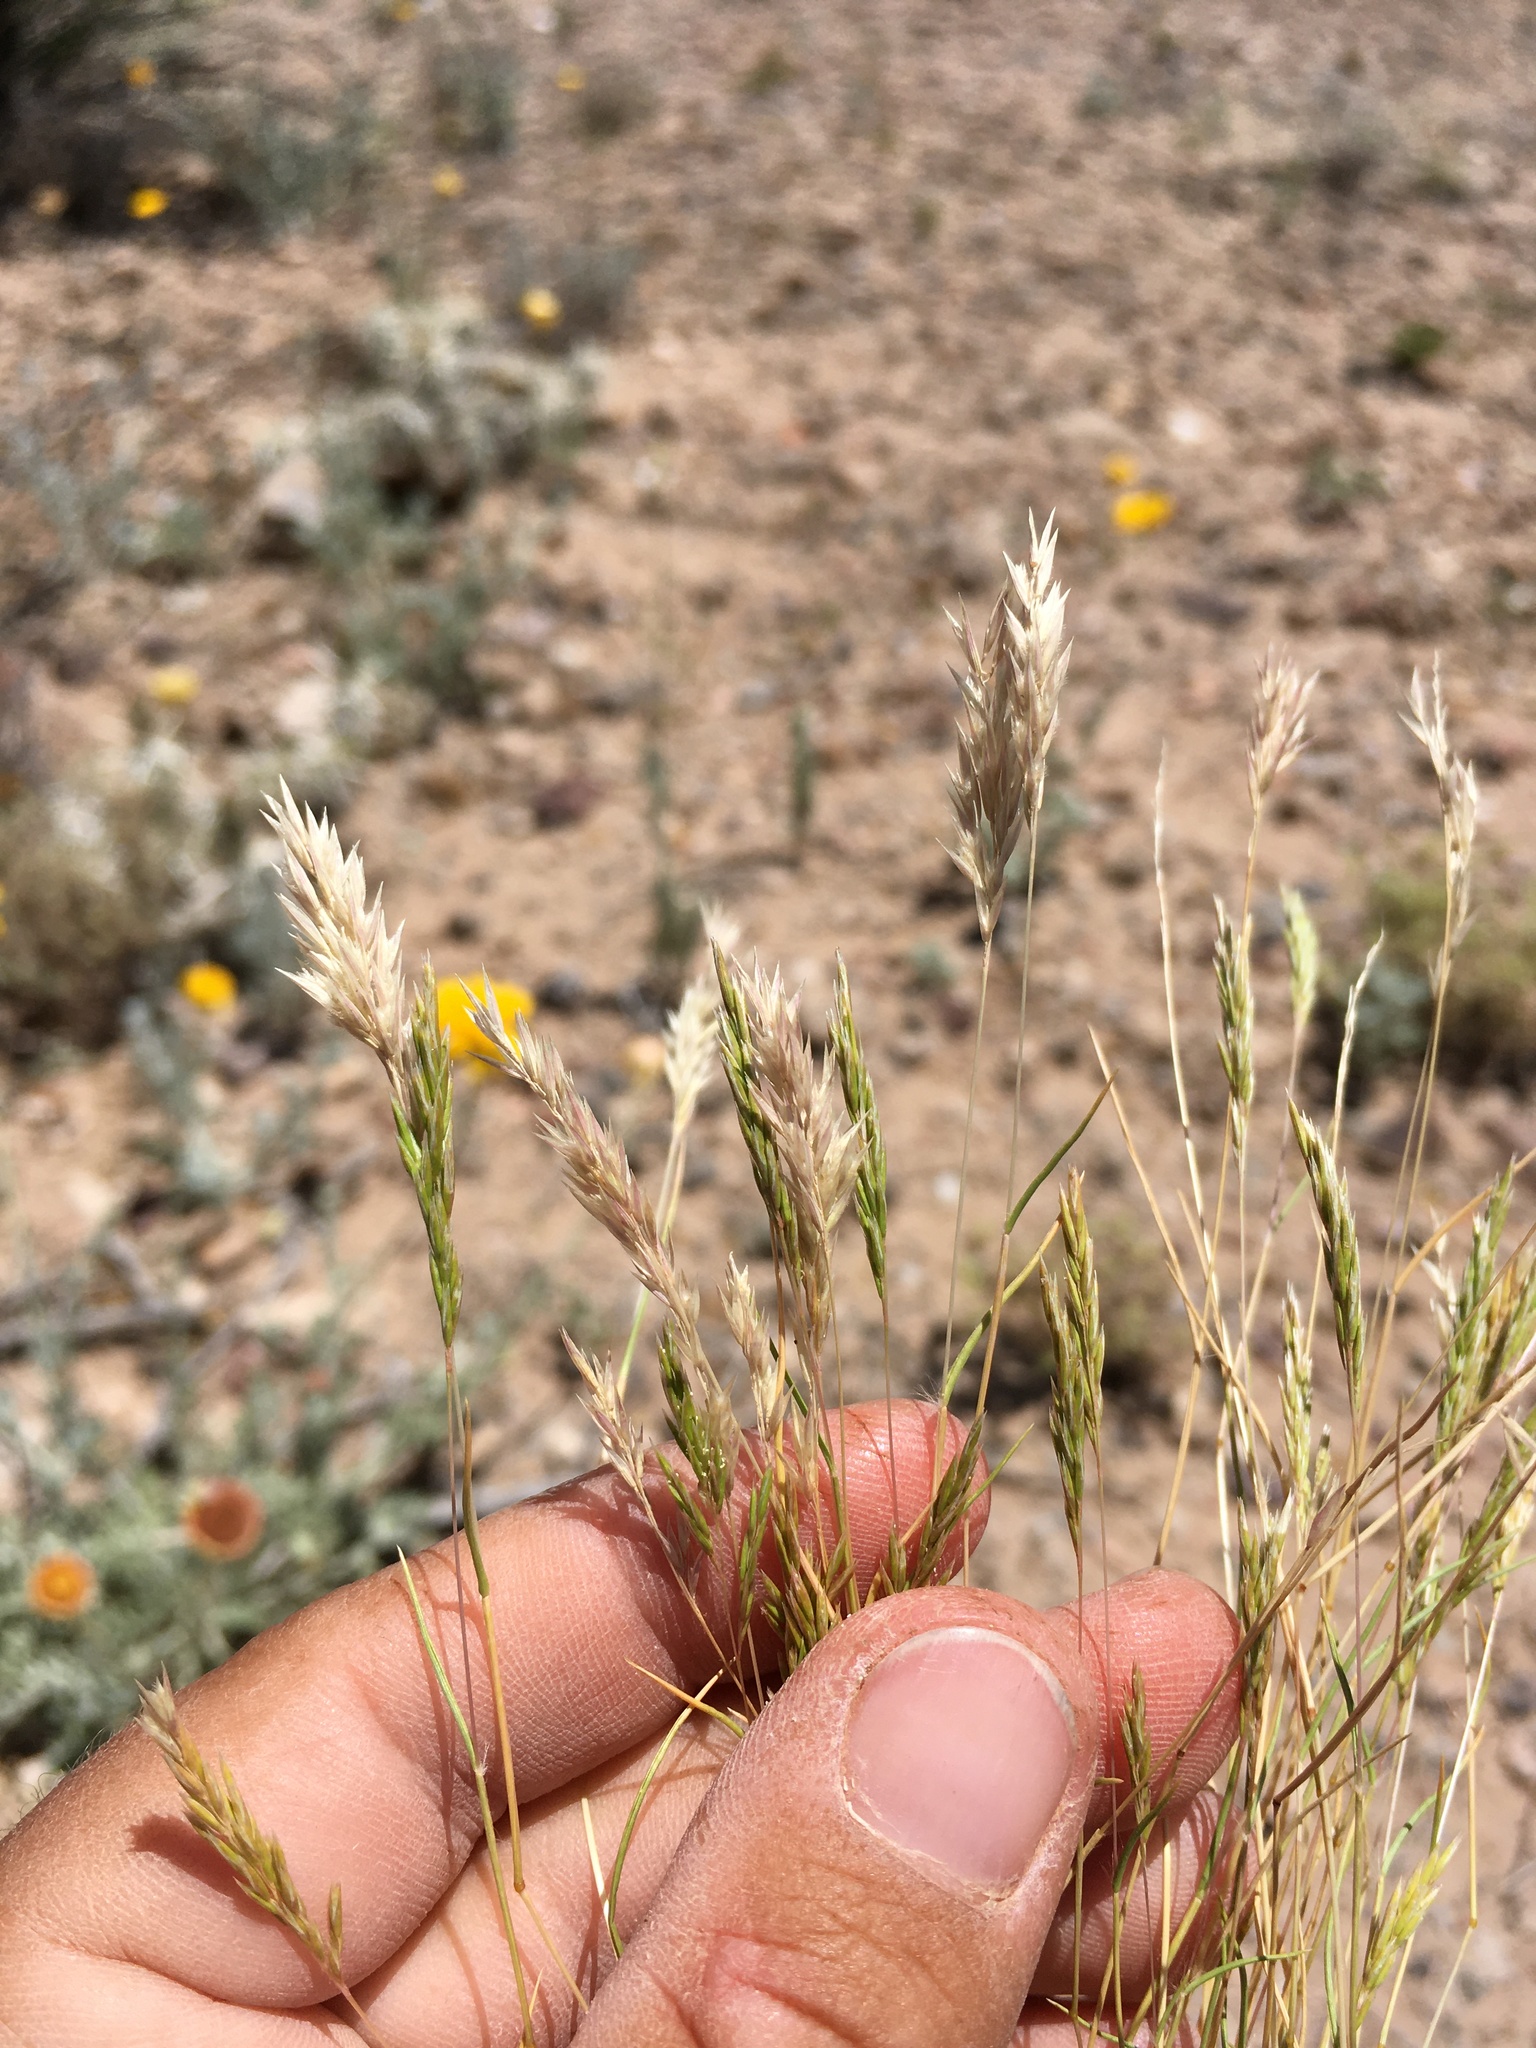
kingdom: Plantae
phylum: Tracheophyta
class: Liliopsida
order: Poales
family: Poaceae
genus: Schismus
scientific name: Schismus barbatus
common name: Kelch-grass
